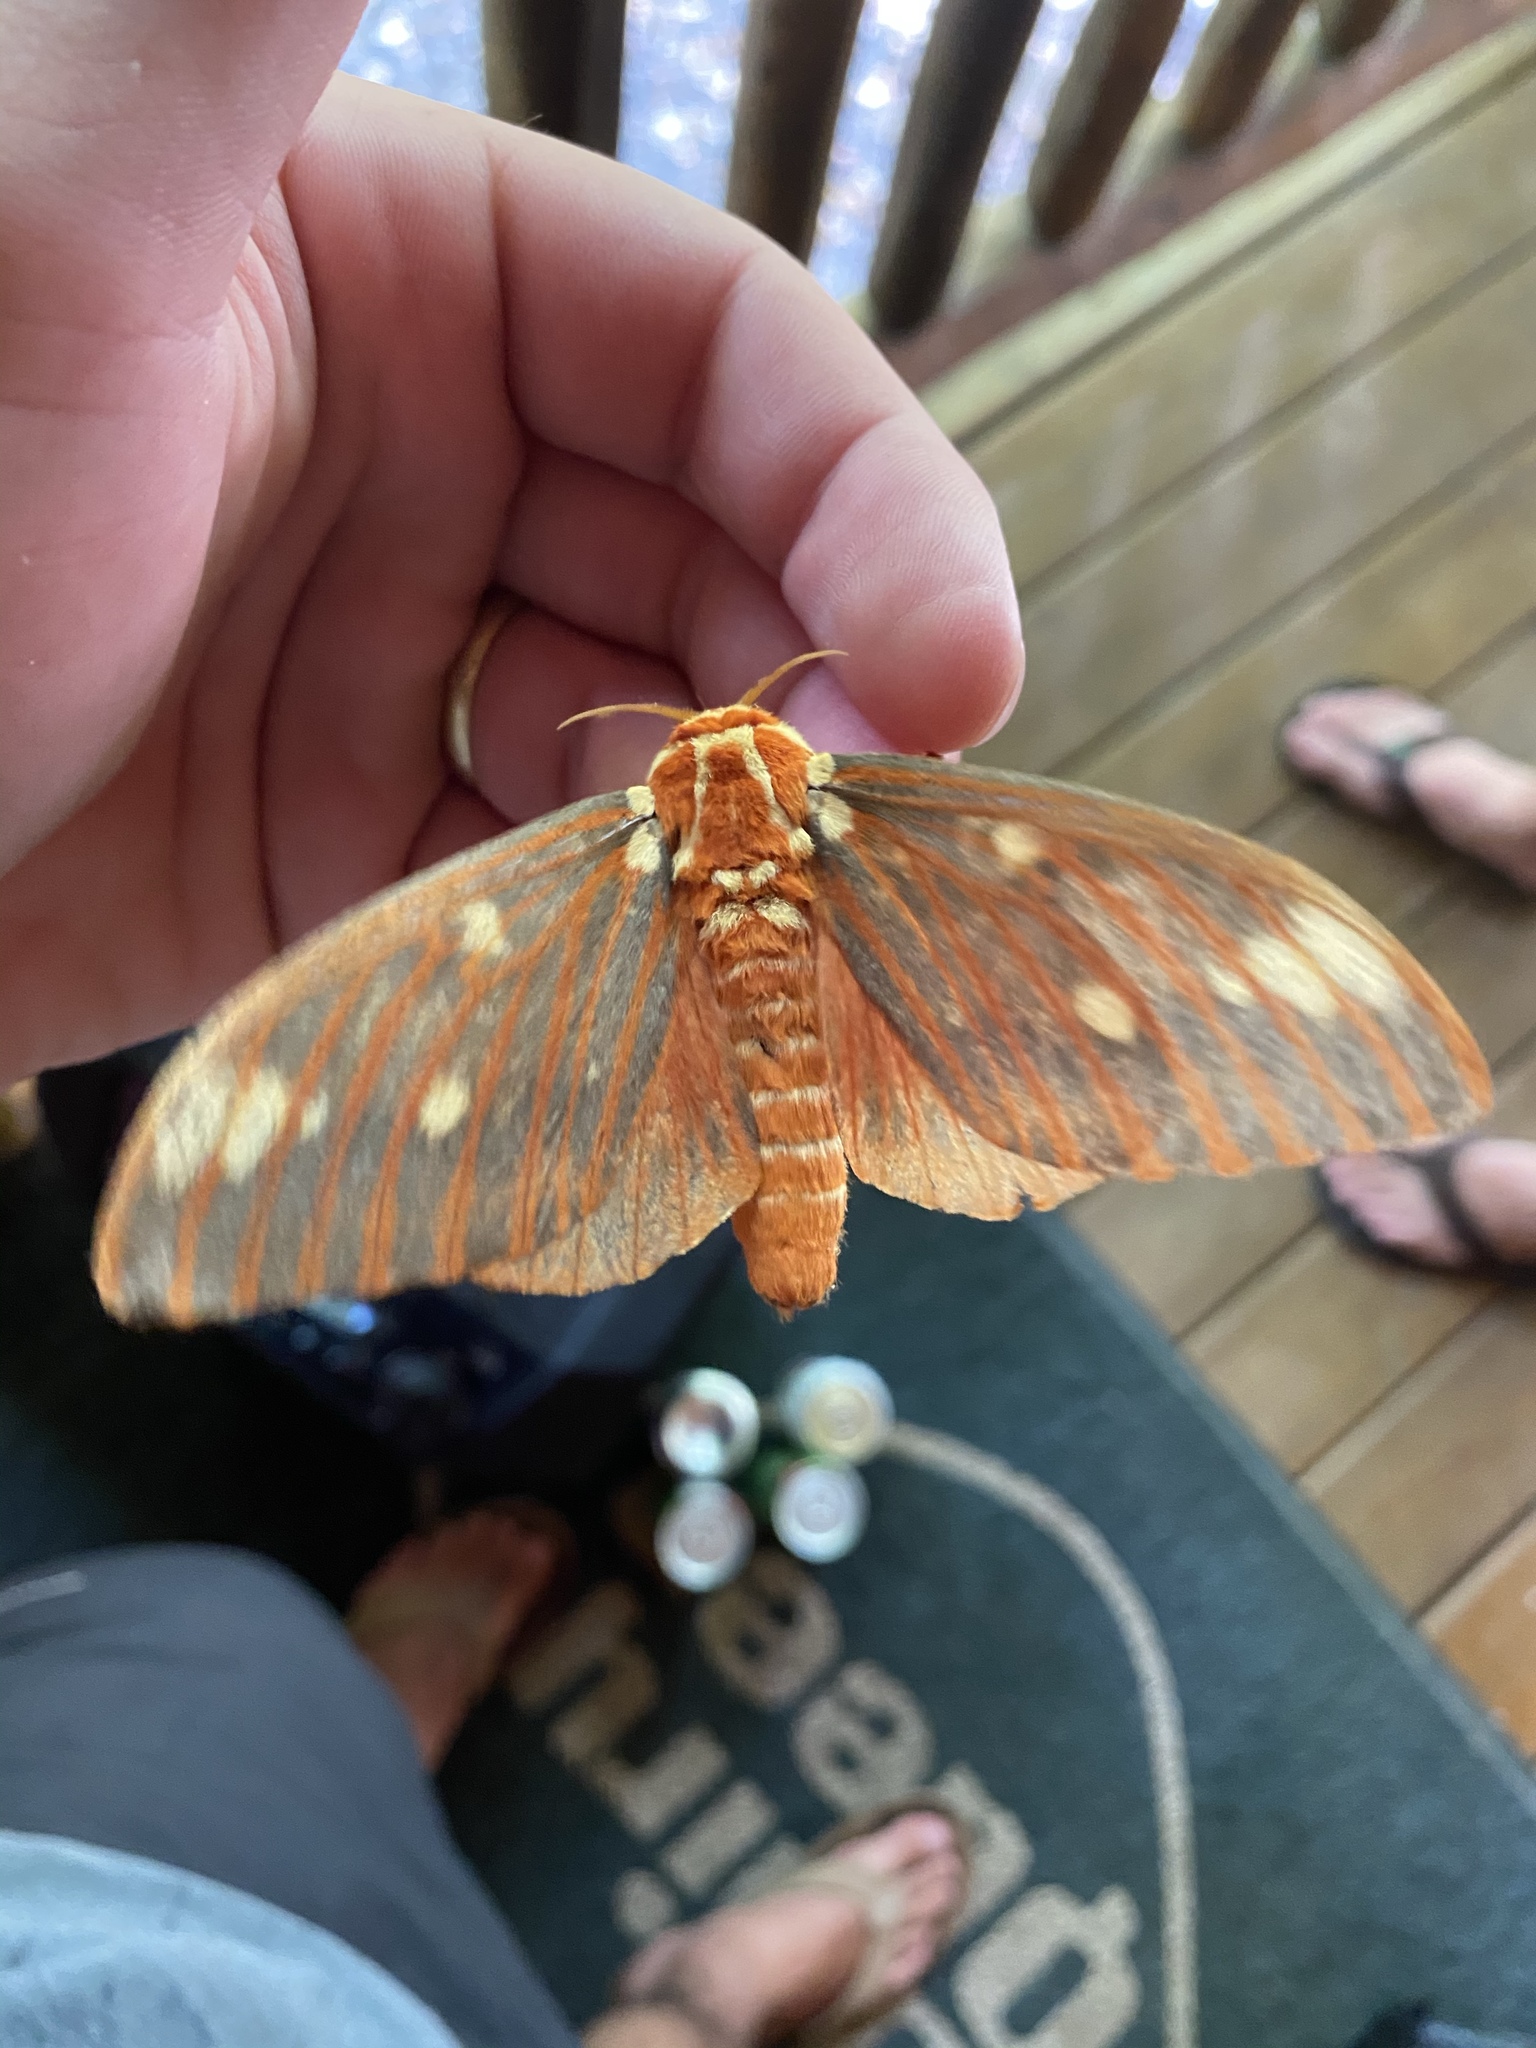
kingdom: Animalia
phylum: Arthropoda
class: Insecta
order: Lepidoptera
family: Saturniidae
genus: Citheronia
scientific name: Citheronia regalis
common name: Hickory horned devil
